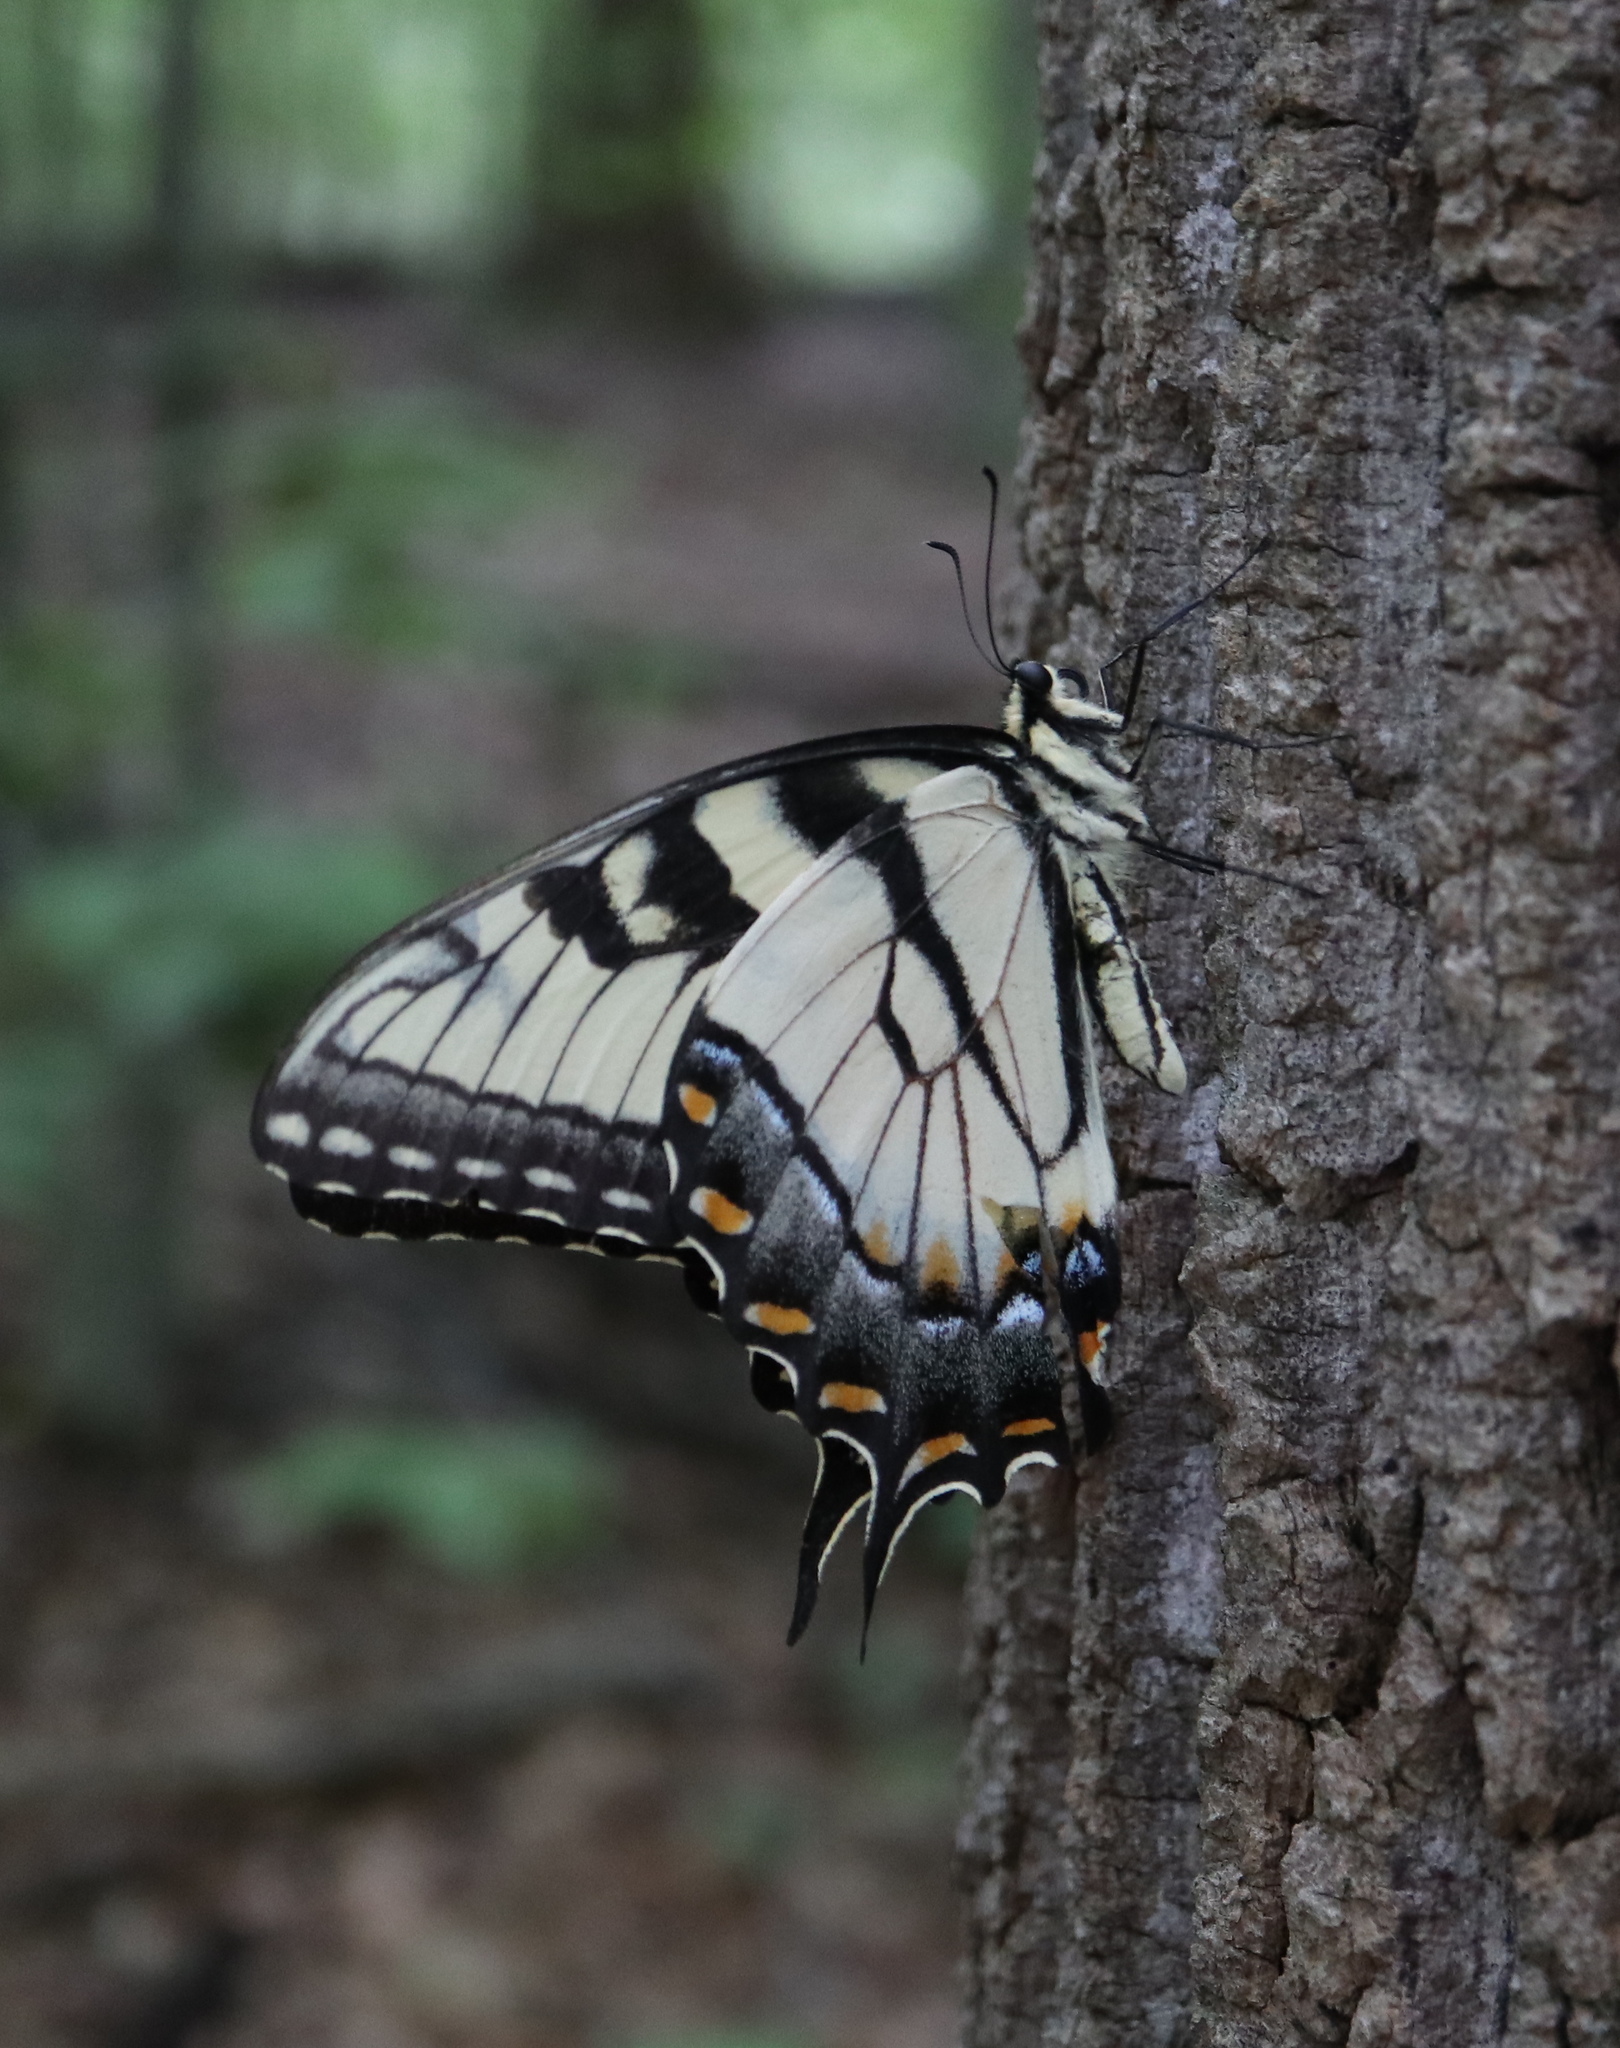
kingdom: Animalia
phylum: Arthropoda
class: Insecta
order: Lepidoptera
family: Papilionidae
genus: Papilio
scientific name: Papilio glaucus
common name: Tiger swallowtail
